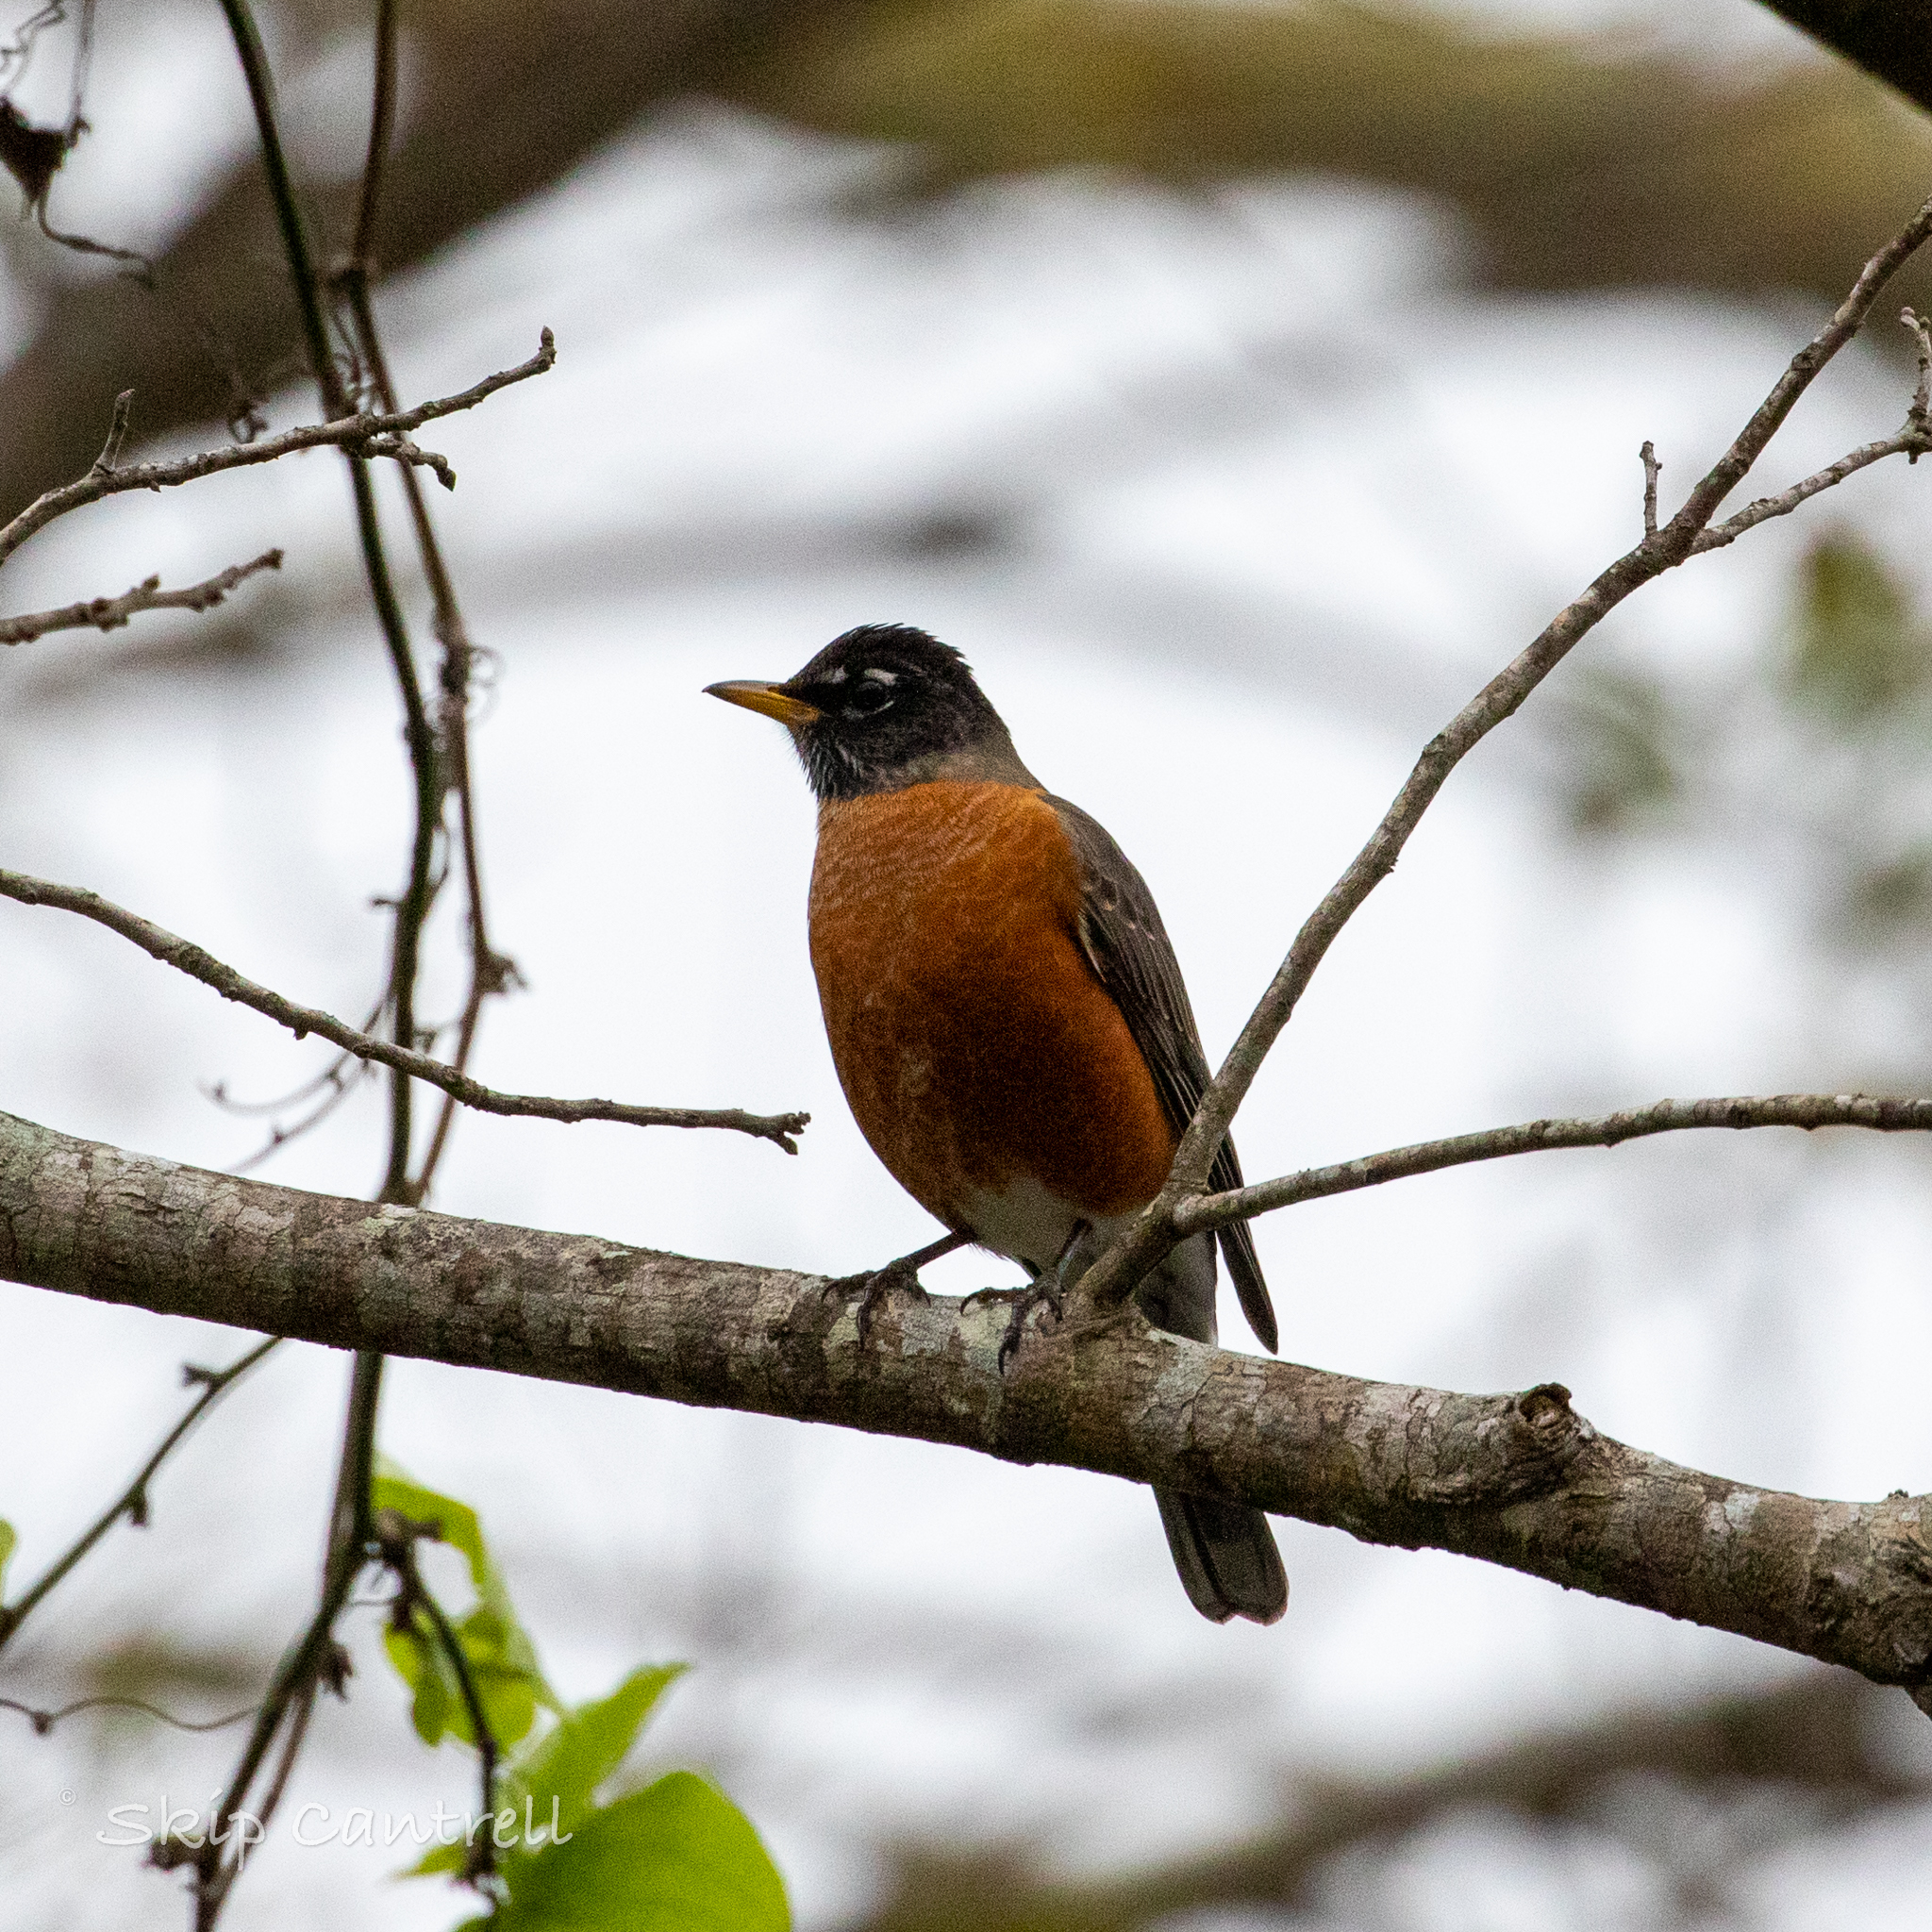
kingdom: Animalia
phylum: Chordata
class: Aves
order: Passeriformes
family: Turdidae
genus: Turdus
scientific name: Turdus migratorius
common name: American robin
